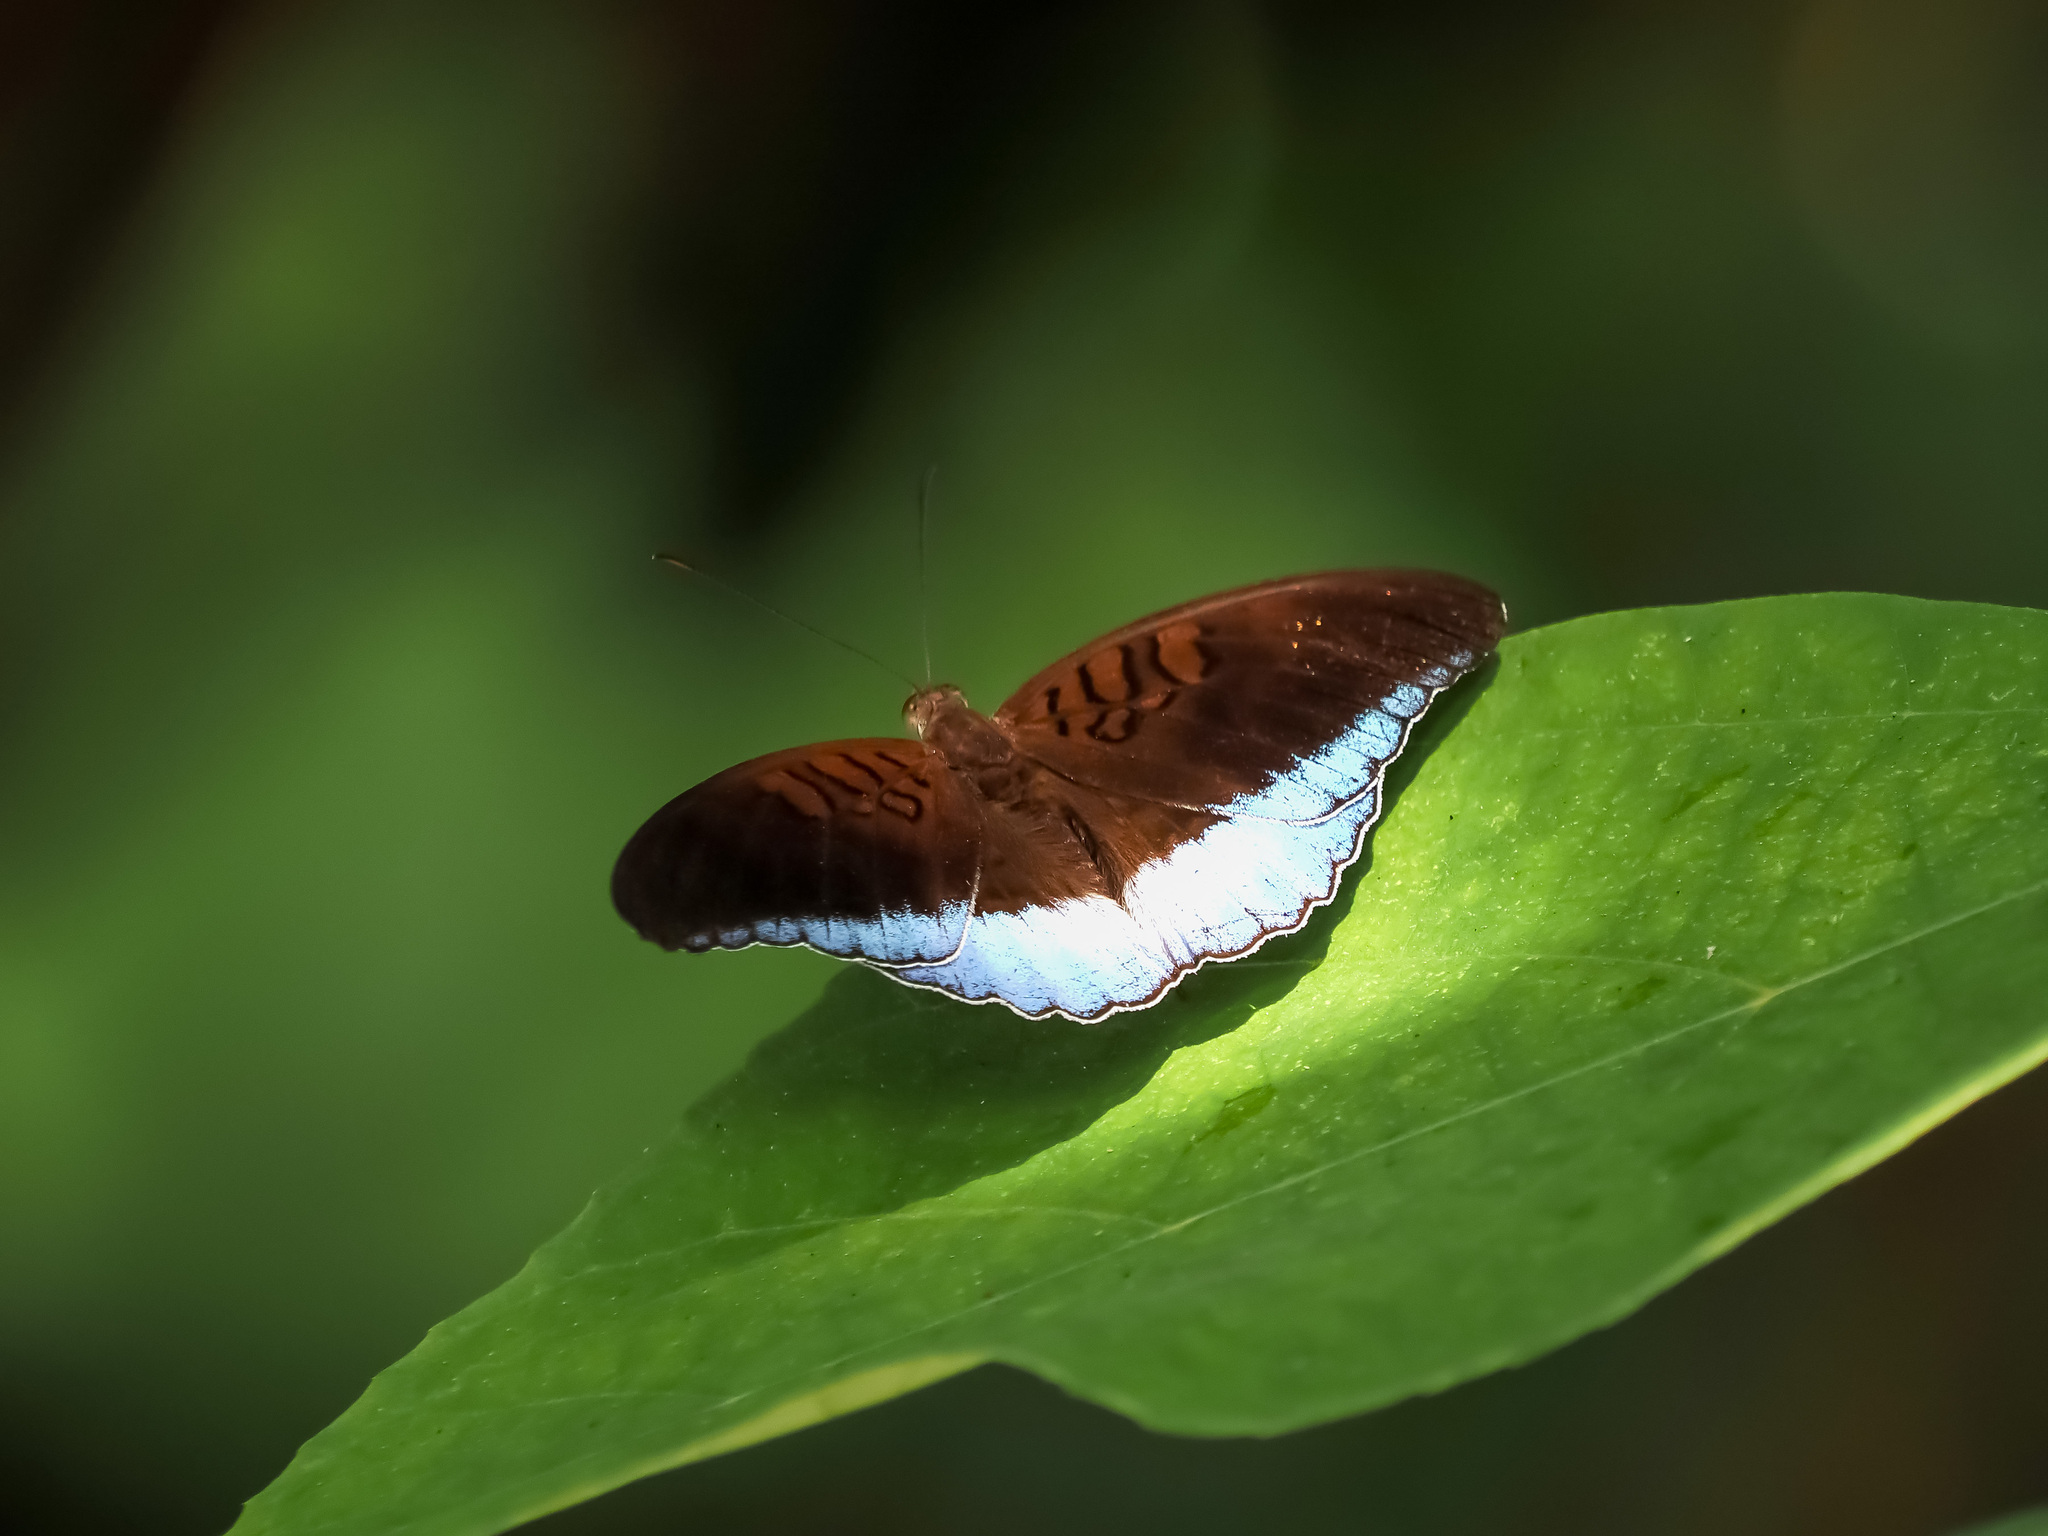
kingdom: Animalia
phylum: Arthropoda
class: Insecta
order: Lepidoptera
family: Nymphalidae
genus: Tanaecia
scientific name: Tanaecia iapis
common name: Horsfield's baron
